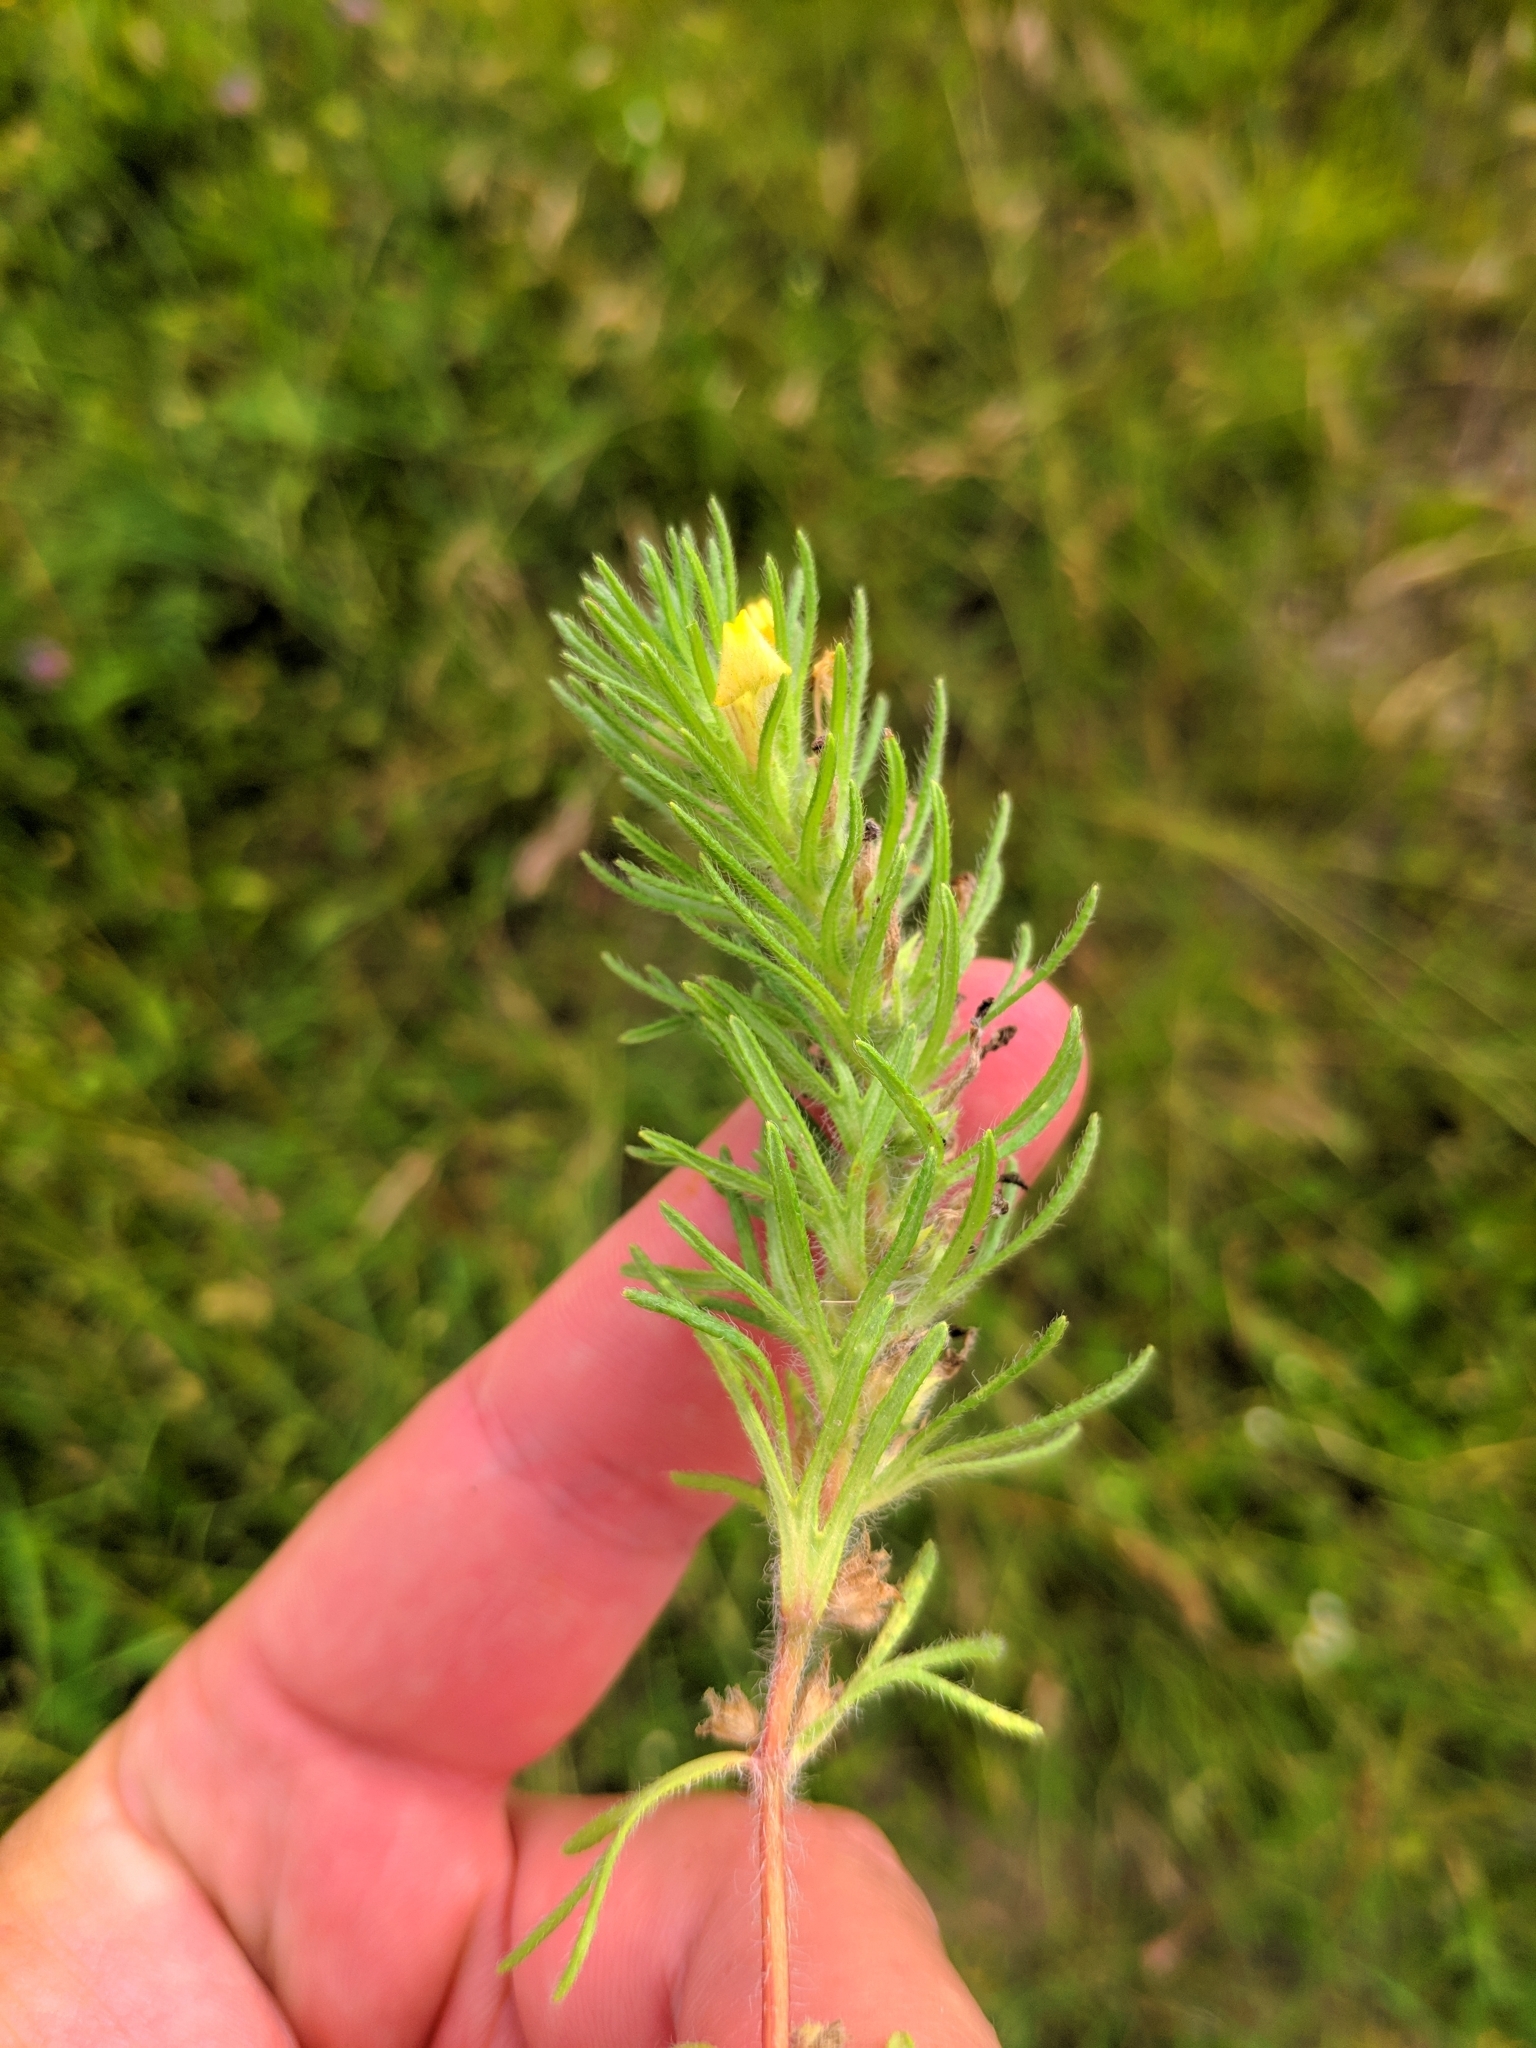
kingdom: Plantae
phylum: Tracheophyta
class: Magnoliopsida
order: Lamiales
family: Lamiaceae
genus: Ajuga
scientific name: Ajuga chamaepitys
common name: Ground-pine
